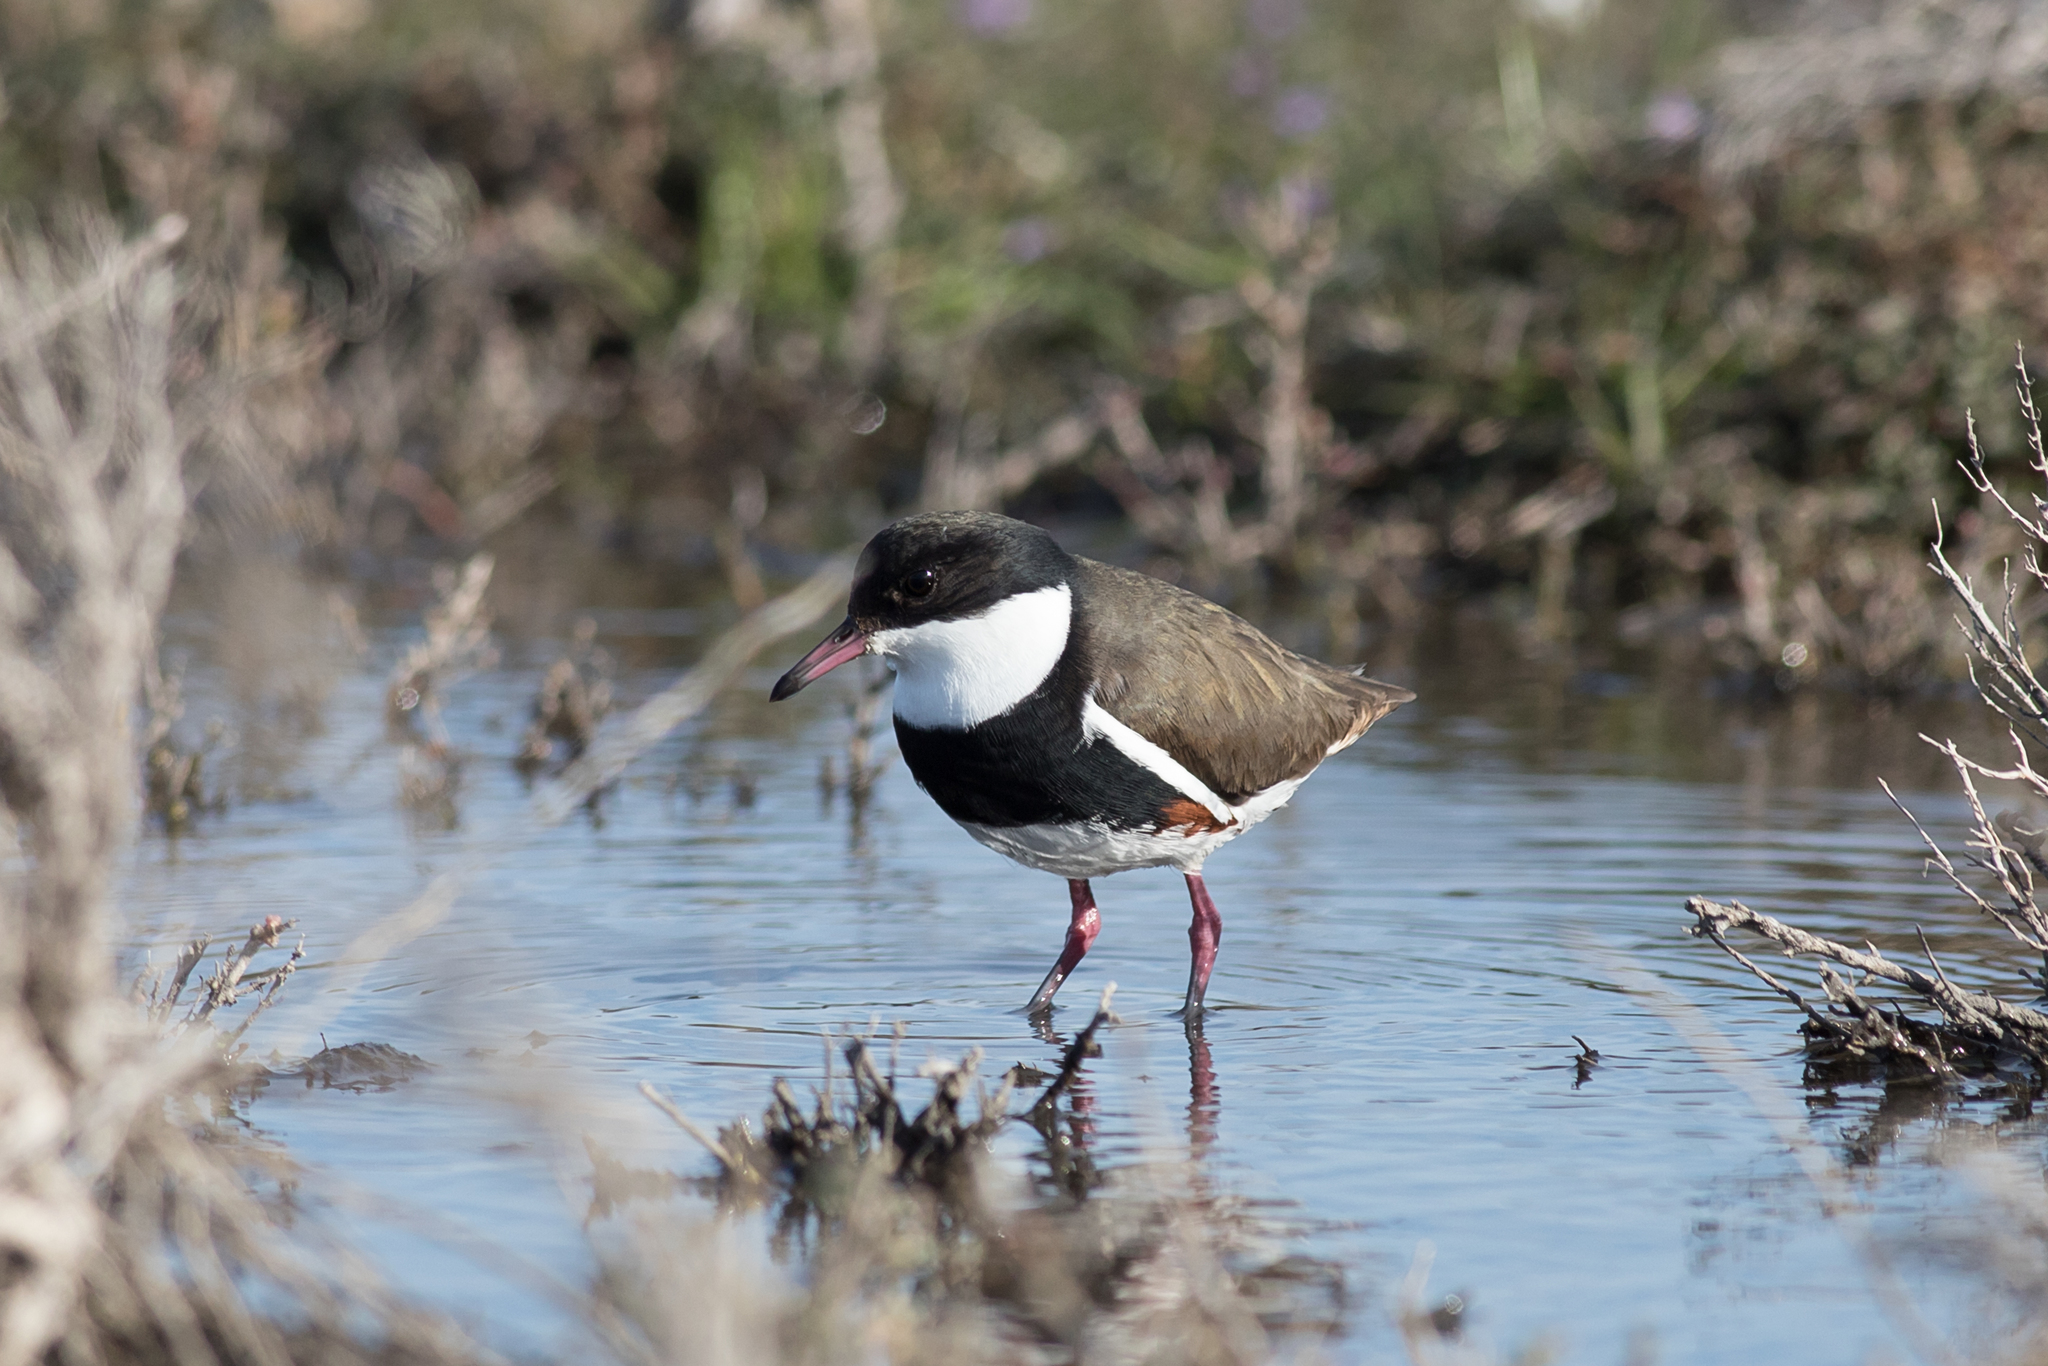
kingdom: Animalia
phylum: Chordata
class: Aves
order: Charadriiformes
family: Charadriidae
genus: Erythrogonys
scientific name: Erythrogonys cinctus
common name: Red-kneed dotterel
